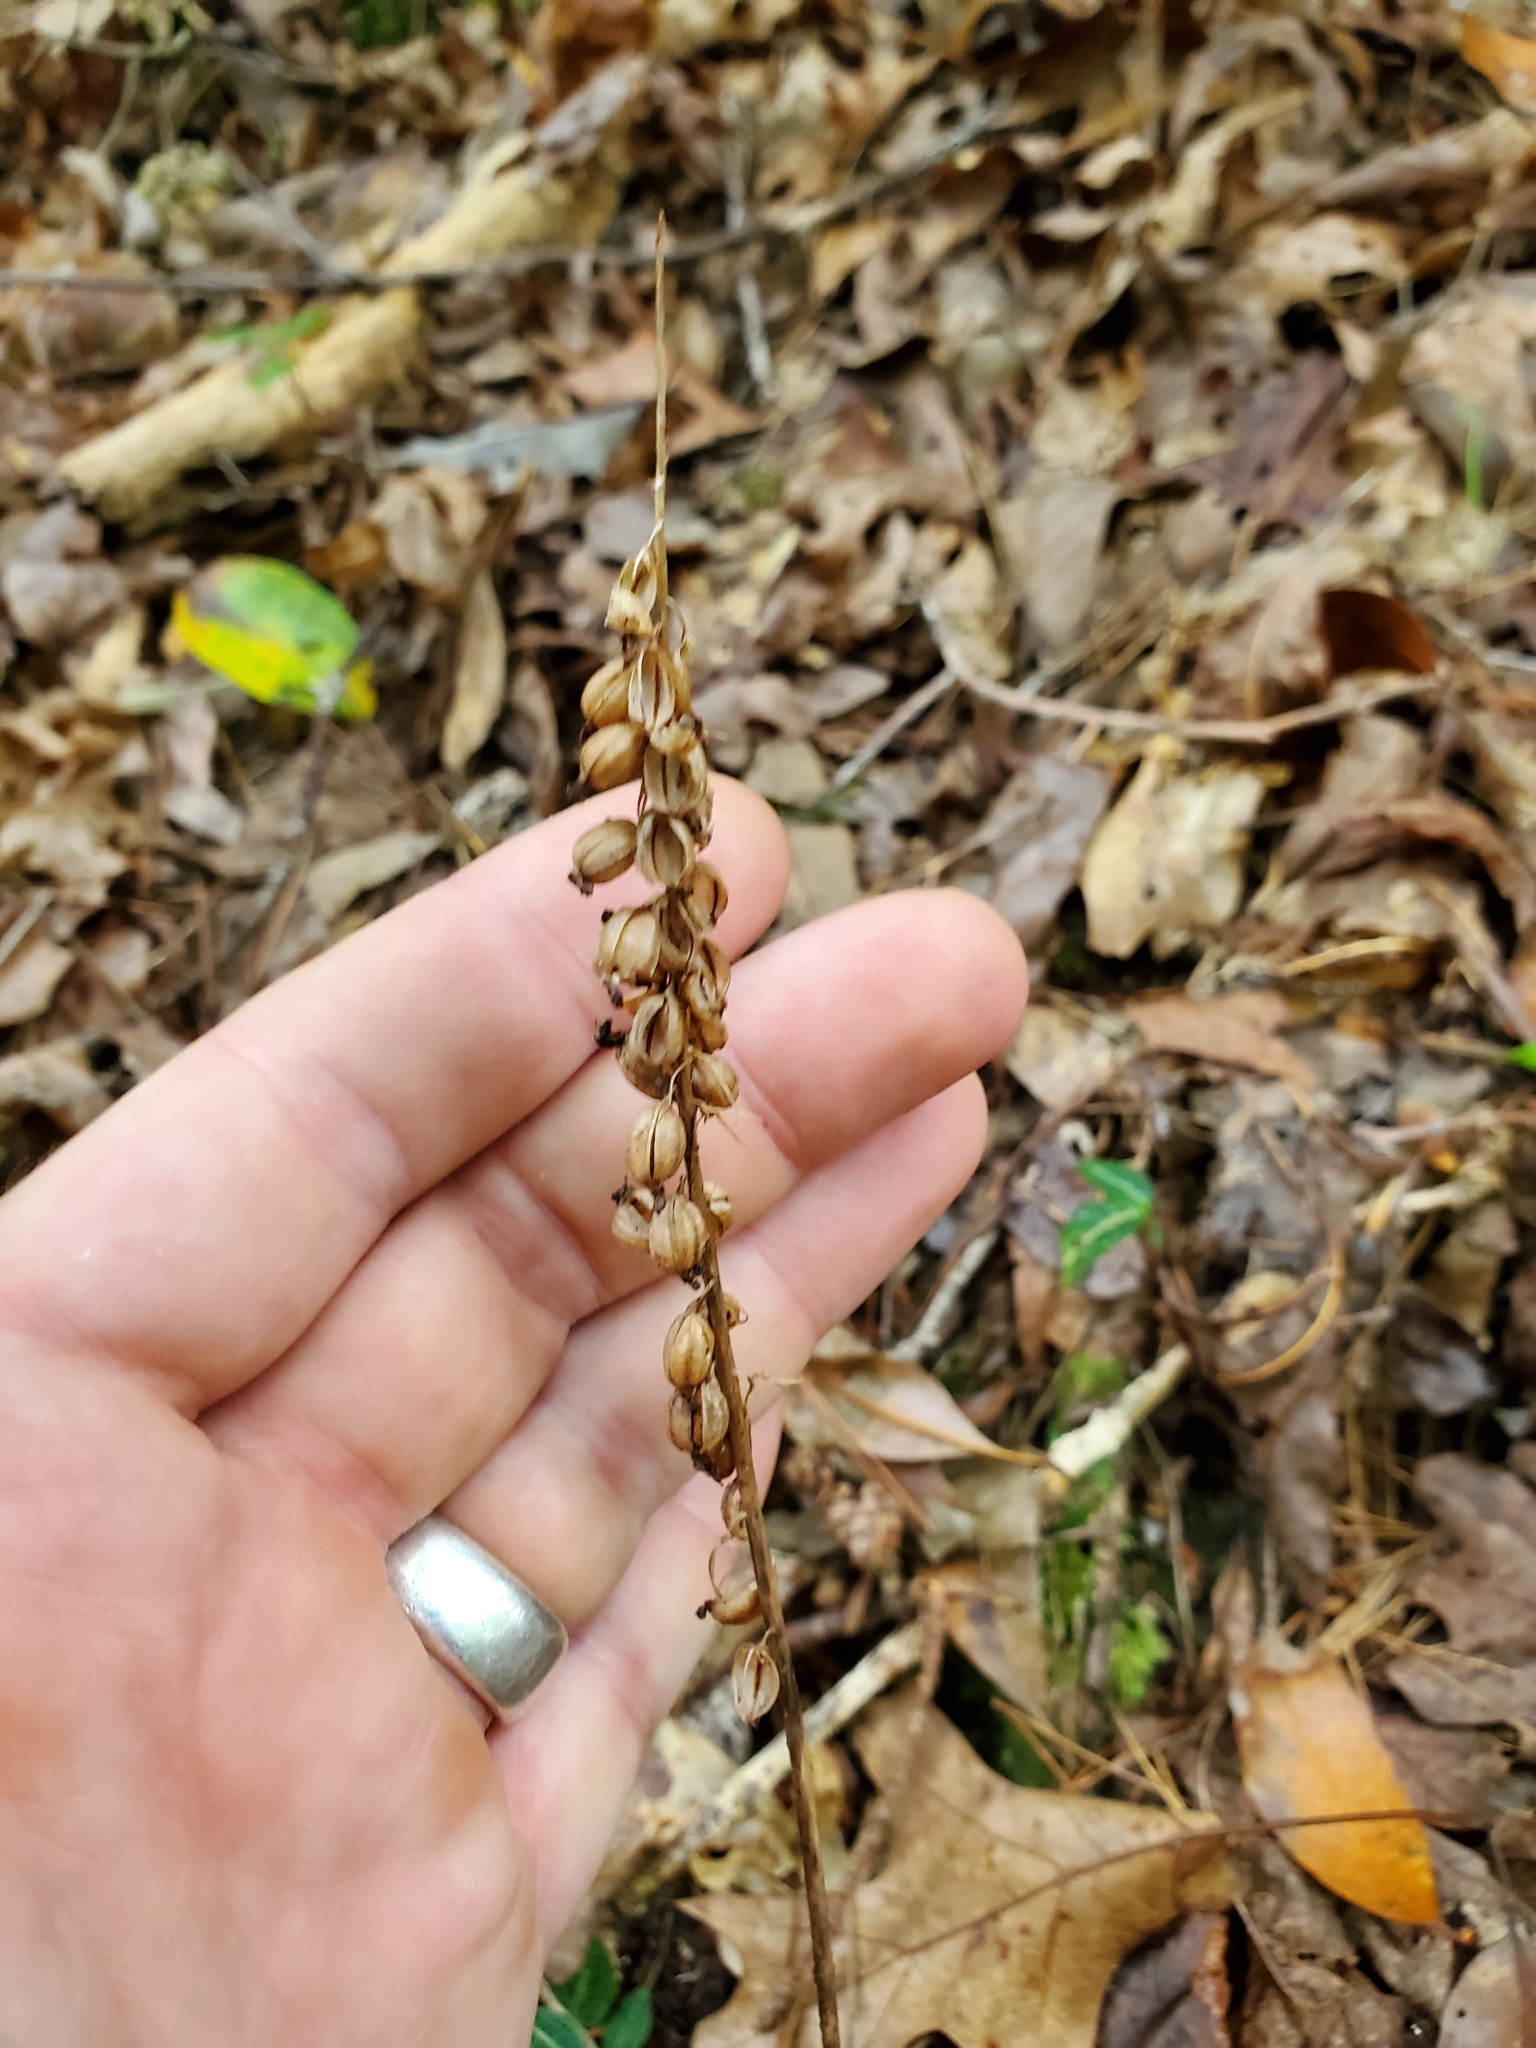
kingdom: Plantae
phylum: Tracheophyta
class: Liliopsida
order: Asparagales
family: Orchidaceae
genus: Goodyera
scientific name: Goodyera pubescens
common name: Downy rattlesnake-plantain
